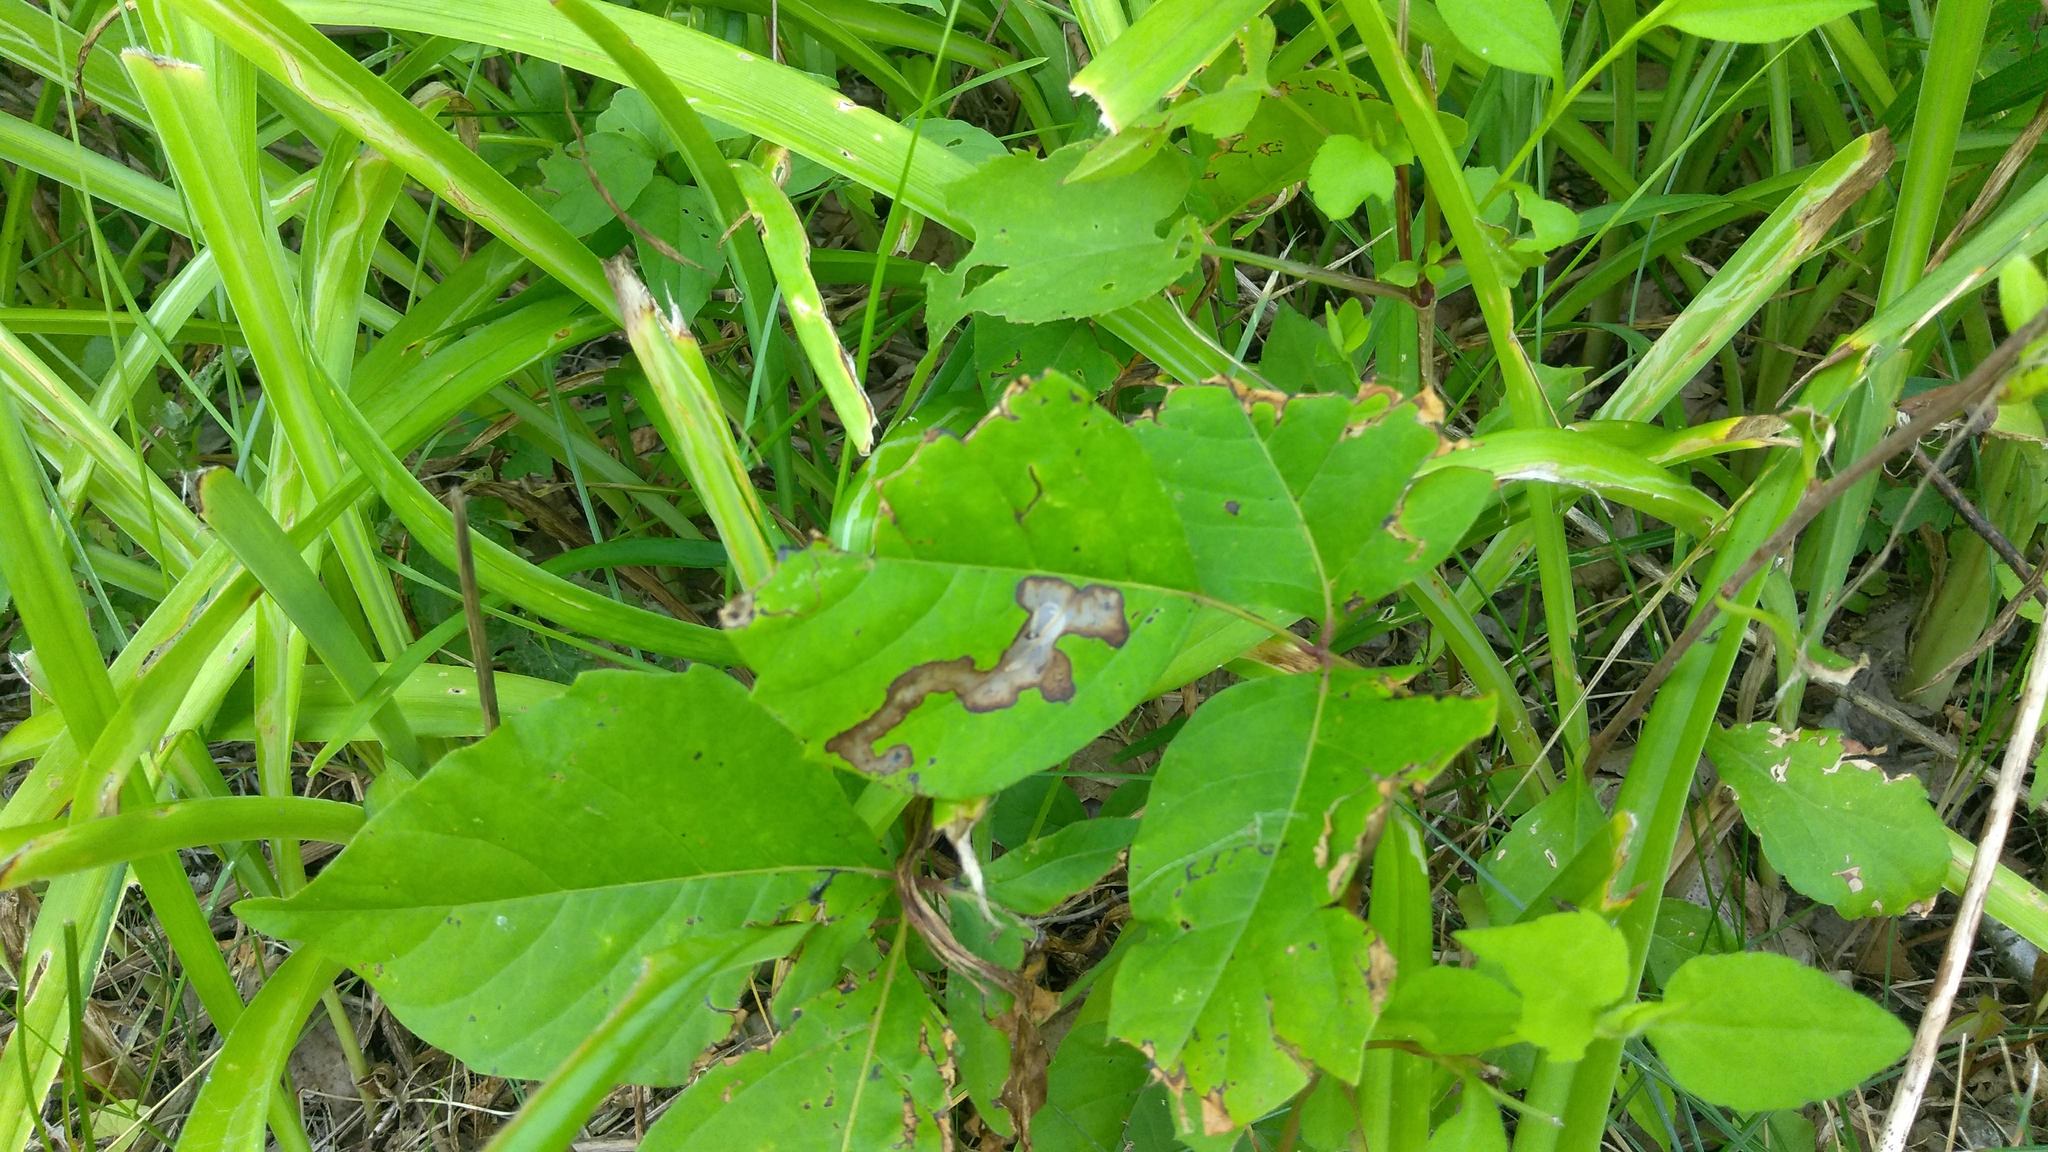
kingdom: Animalia
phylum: Arthropoda
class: Insecta
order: Lepidoptera
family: Gracillariidae
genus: Cameraria
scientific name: Cameraria guttifinitella
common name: Poison ivy leaf-miner moth
